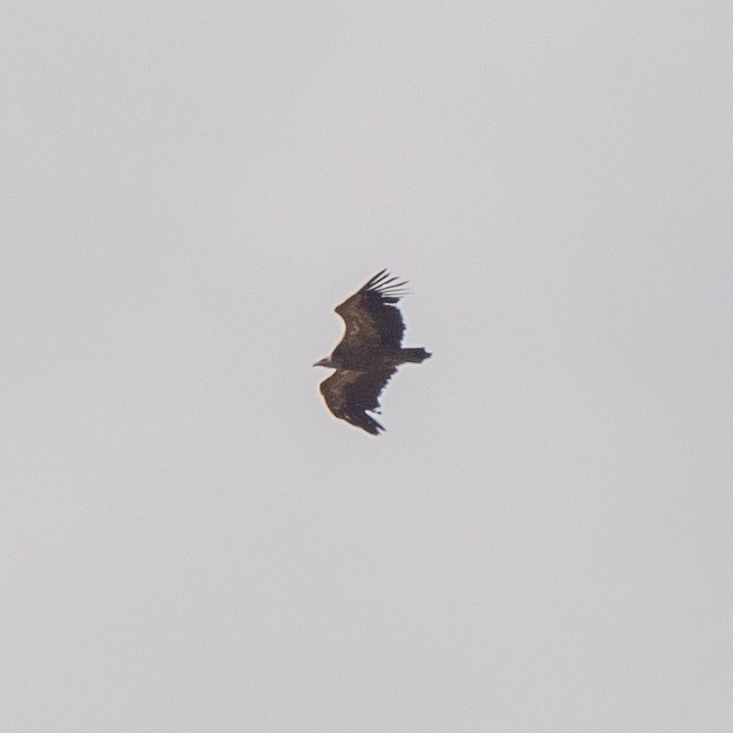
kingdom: Animalia
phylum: Chordata
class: Aves
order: Accipitriformes
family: Accipitridae
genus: Gyps
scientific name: Gyps fulvus
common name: Griffon vulture
